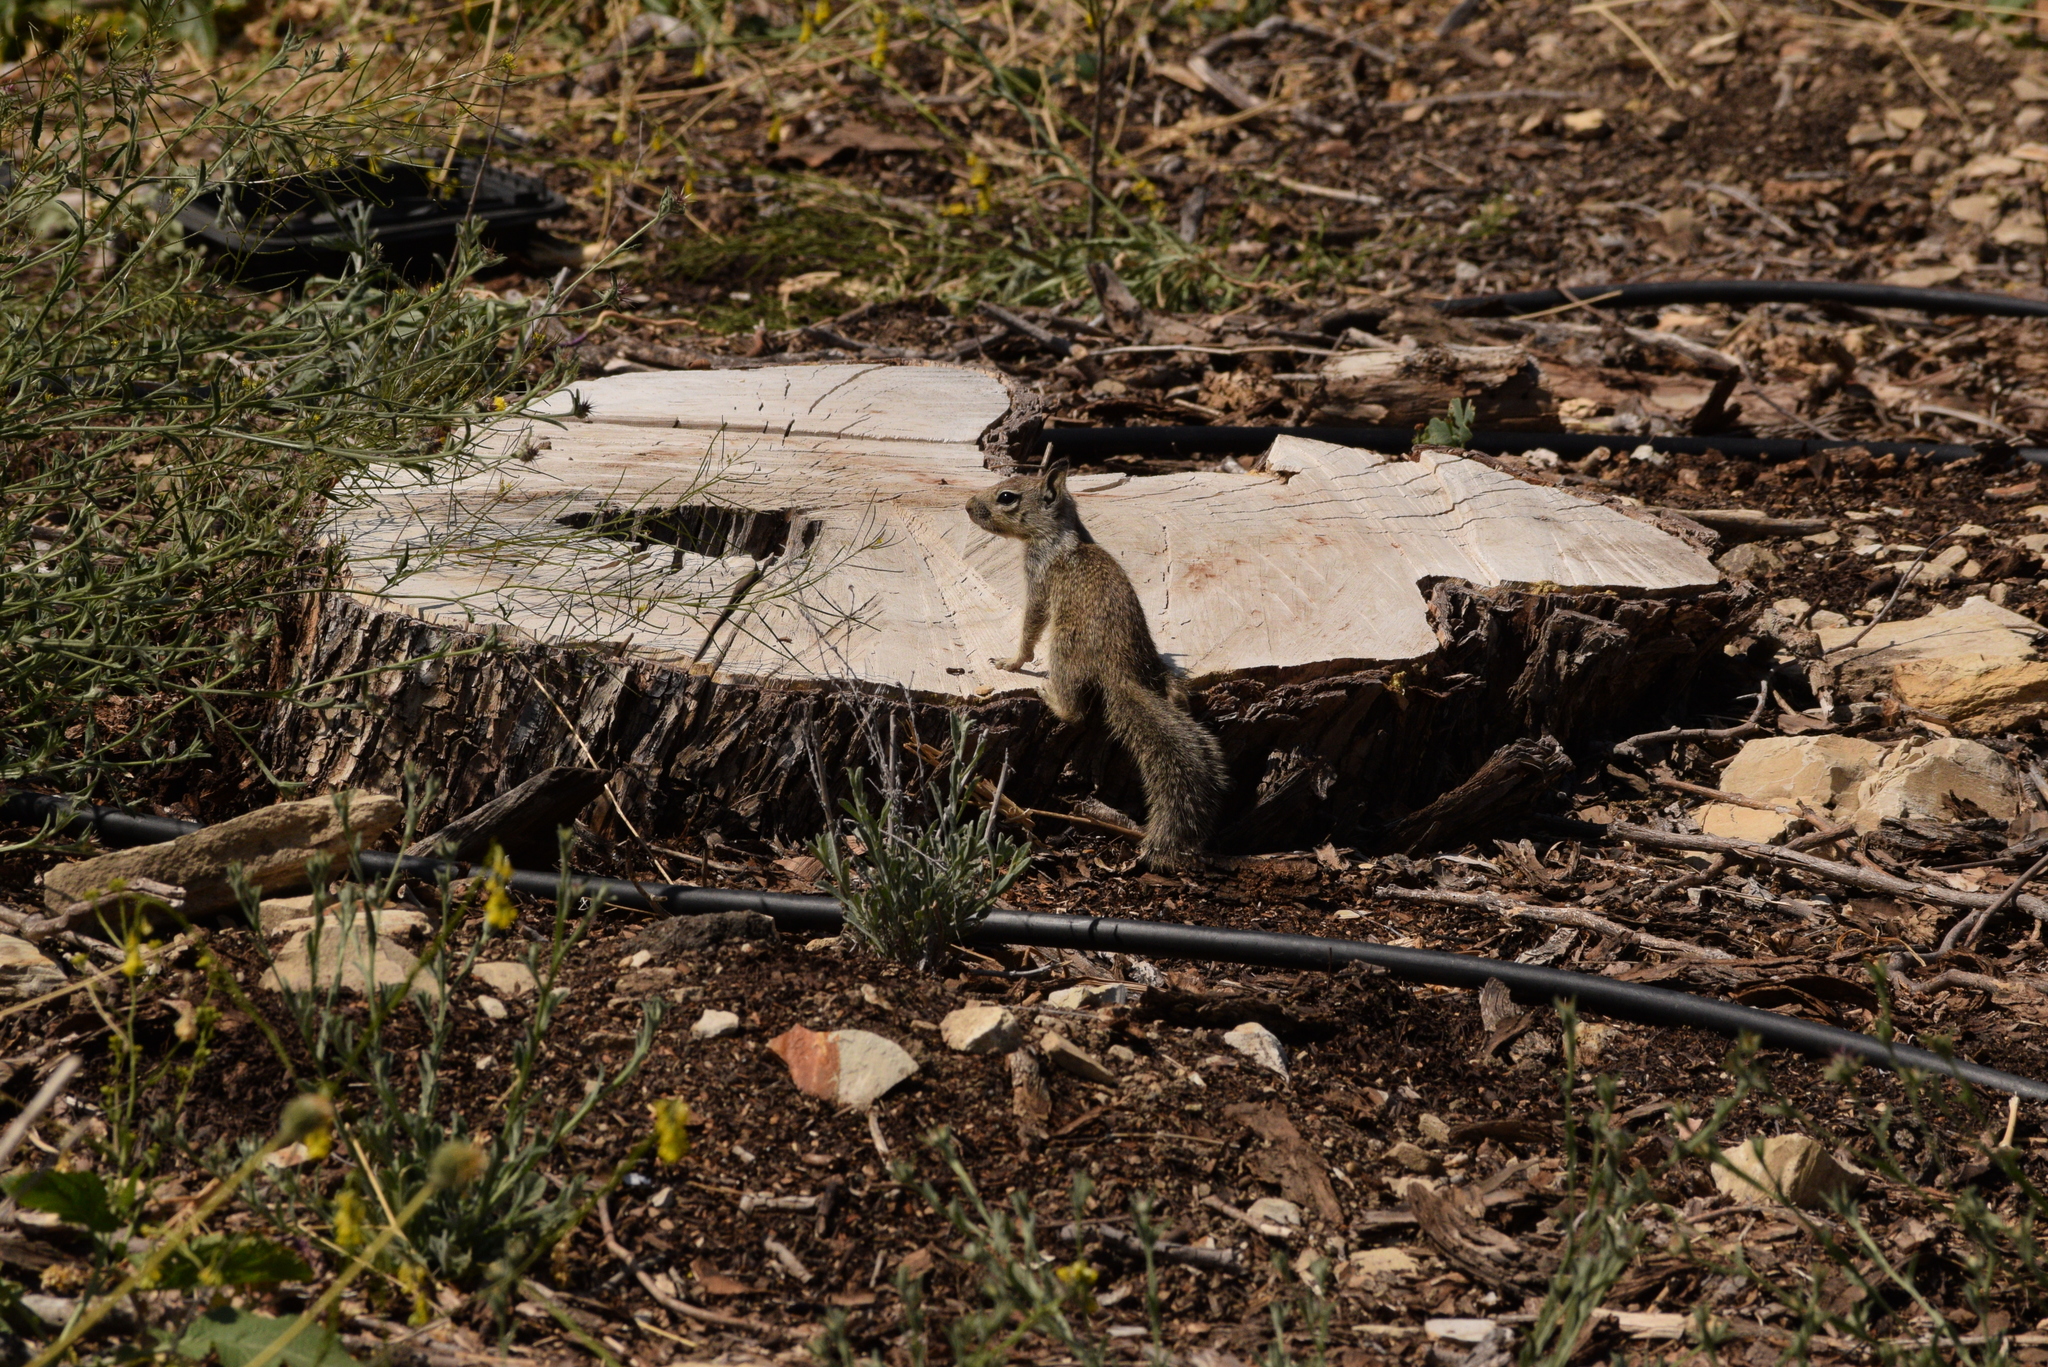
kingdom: Animalia
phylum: Chordata
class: Mammalia
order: Rodentia
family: Sciuridae
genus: Otospermophilus
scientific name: Otospermophilus beecheyi
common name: California ground squirrel
